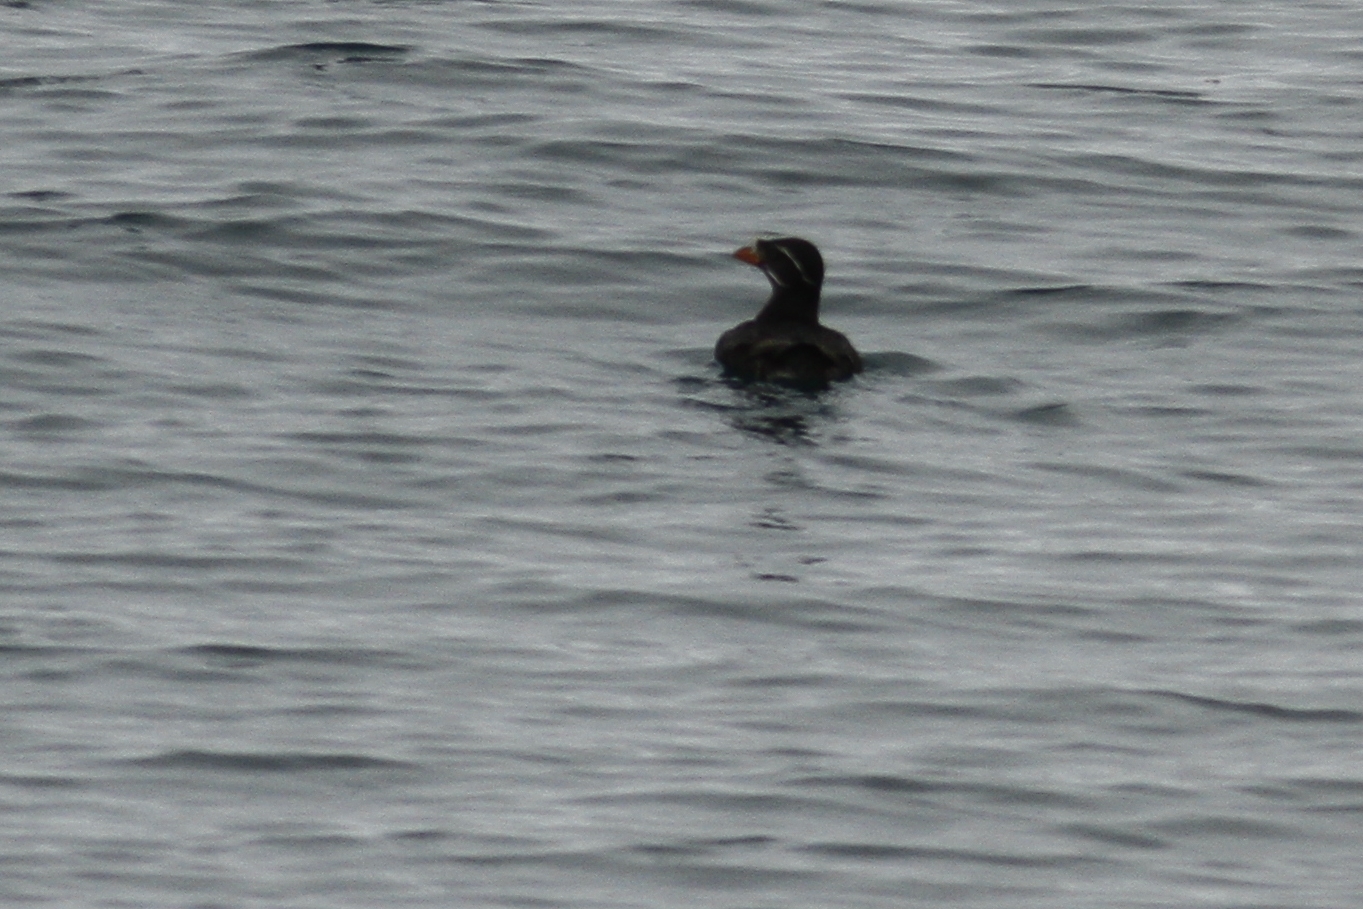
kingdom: Animalia
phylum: Chordata
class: Aves
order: Charadriiformes
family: Alcidae
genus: Cerorhinca
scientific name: Cerorhinca monocerata
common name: Rhinoceros auklet
